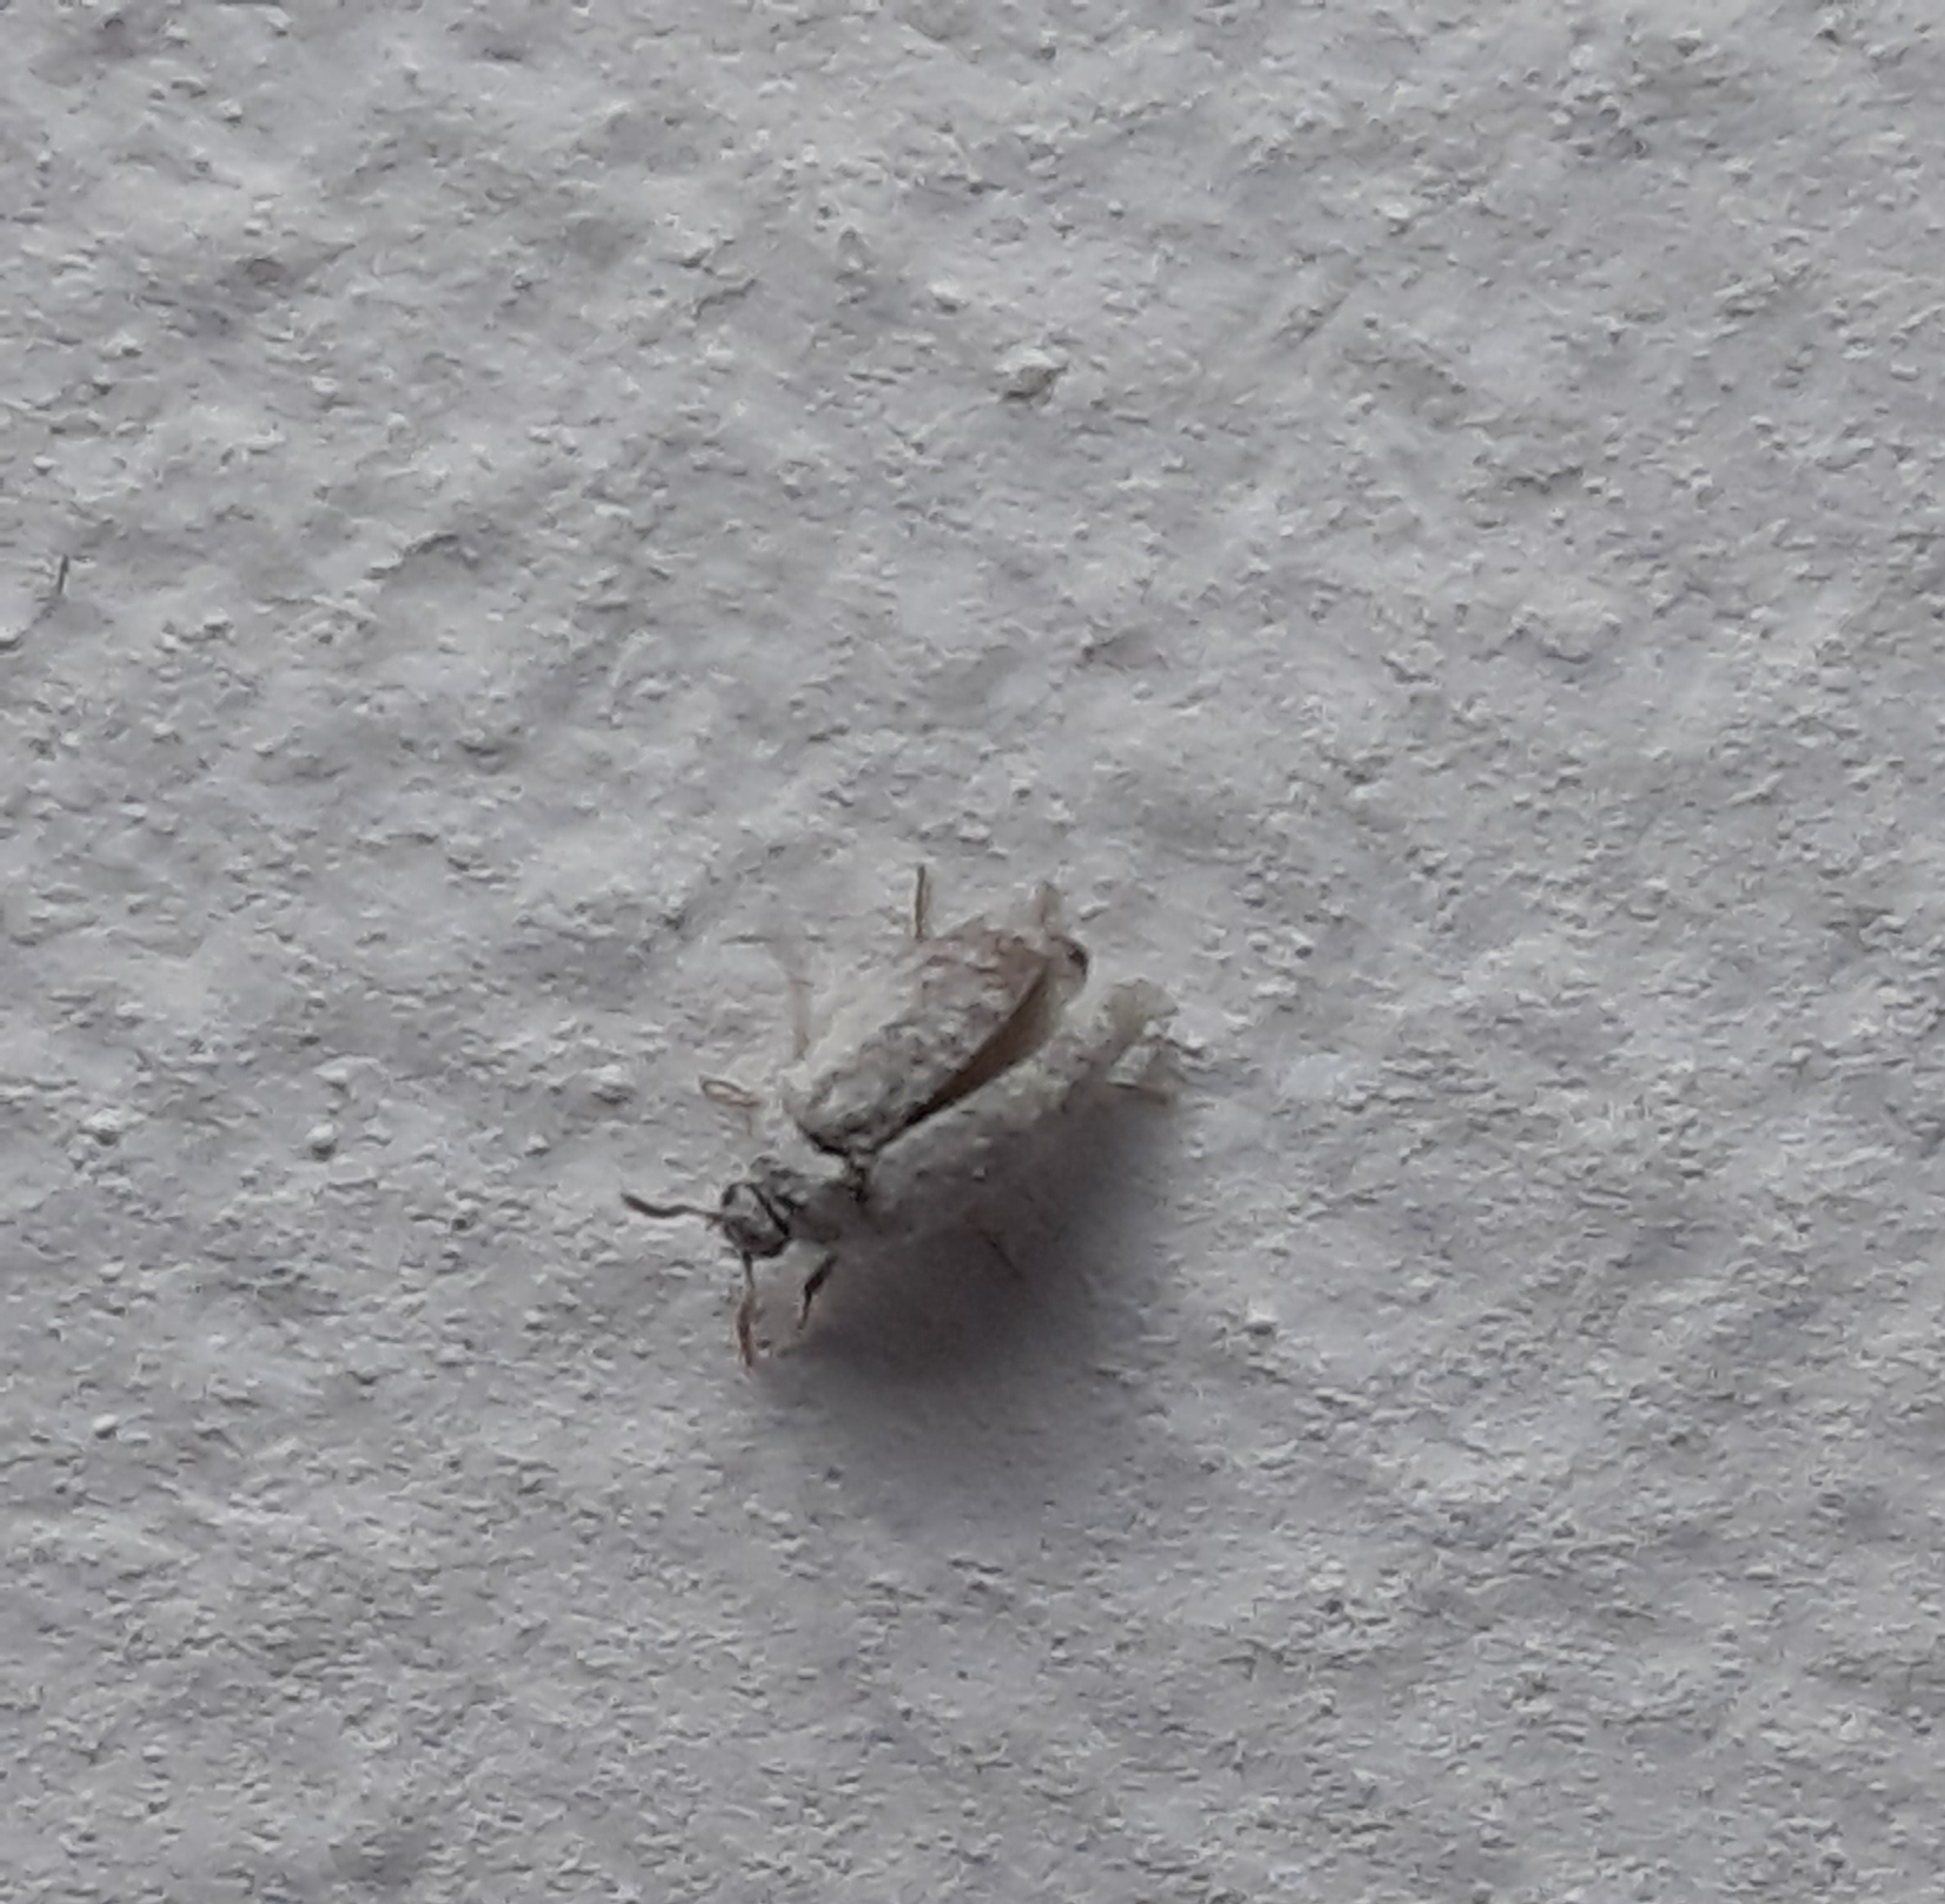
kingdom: Animalia
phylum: Arthropoda
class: Insecta
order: Coleoptera
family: Dermestidae
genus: Attagenus
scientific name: Attagenus
